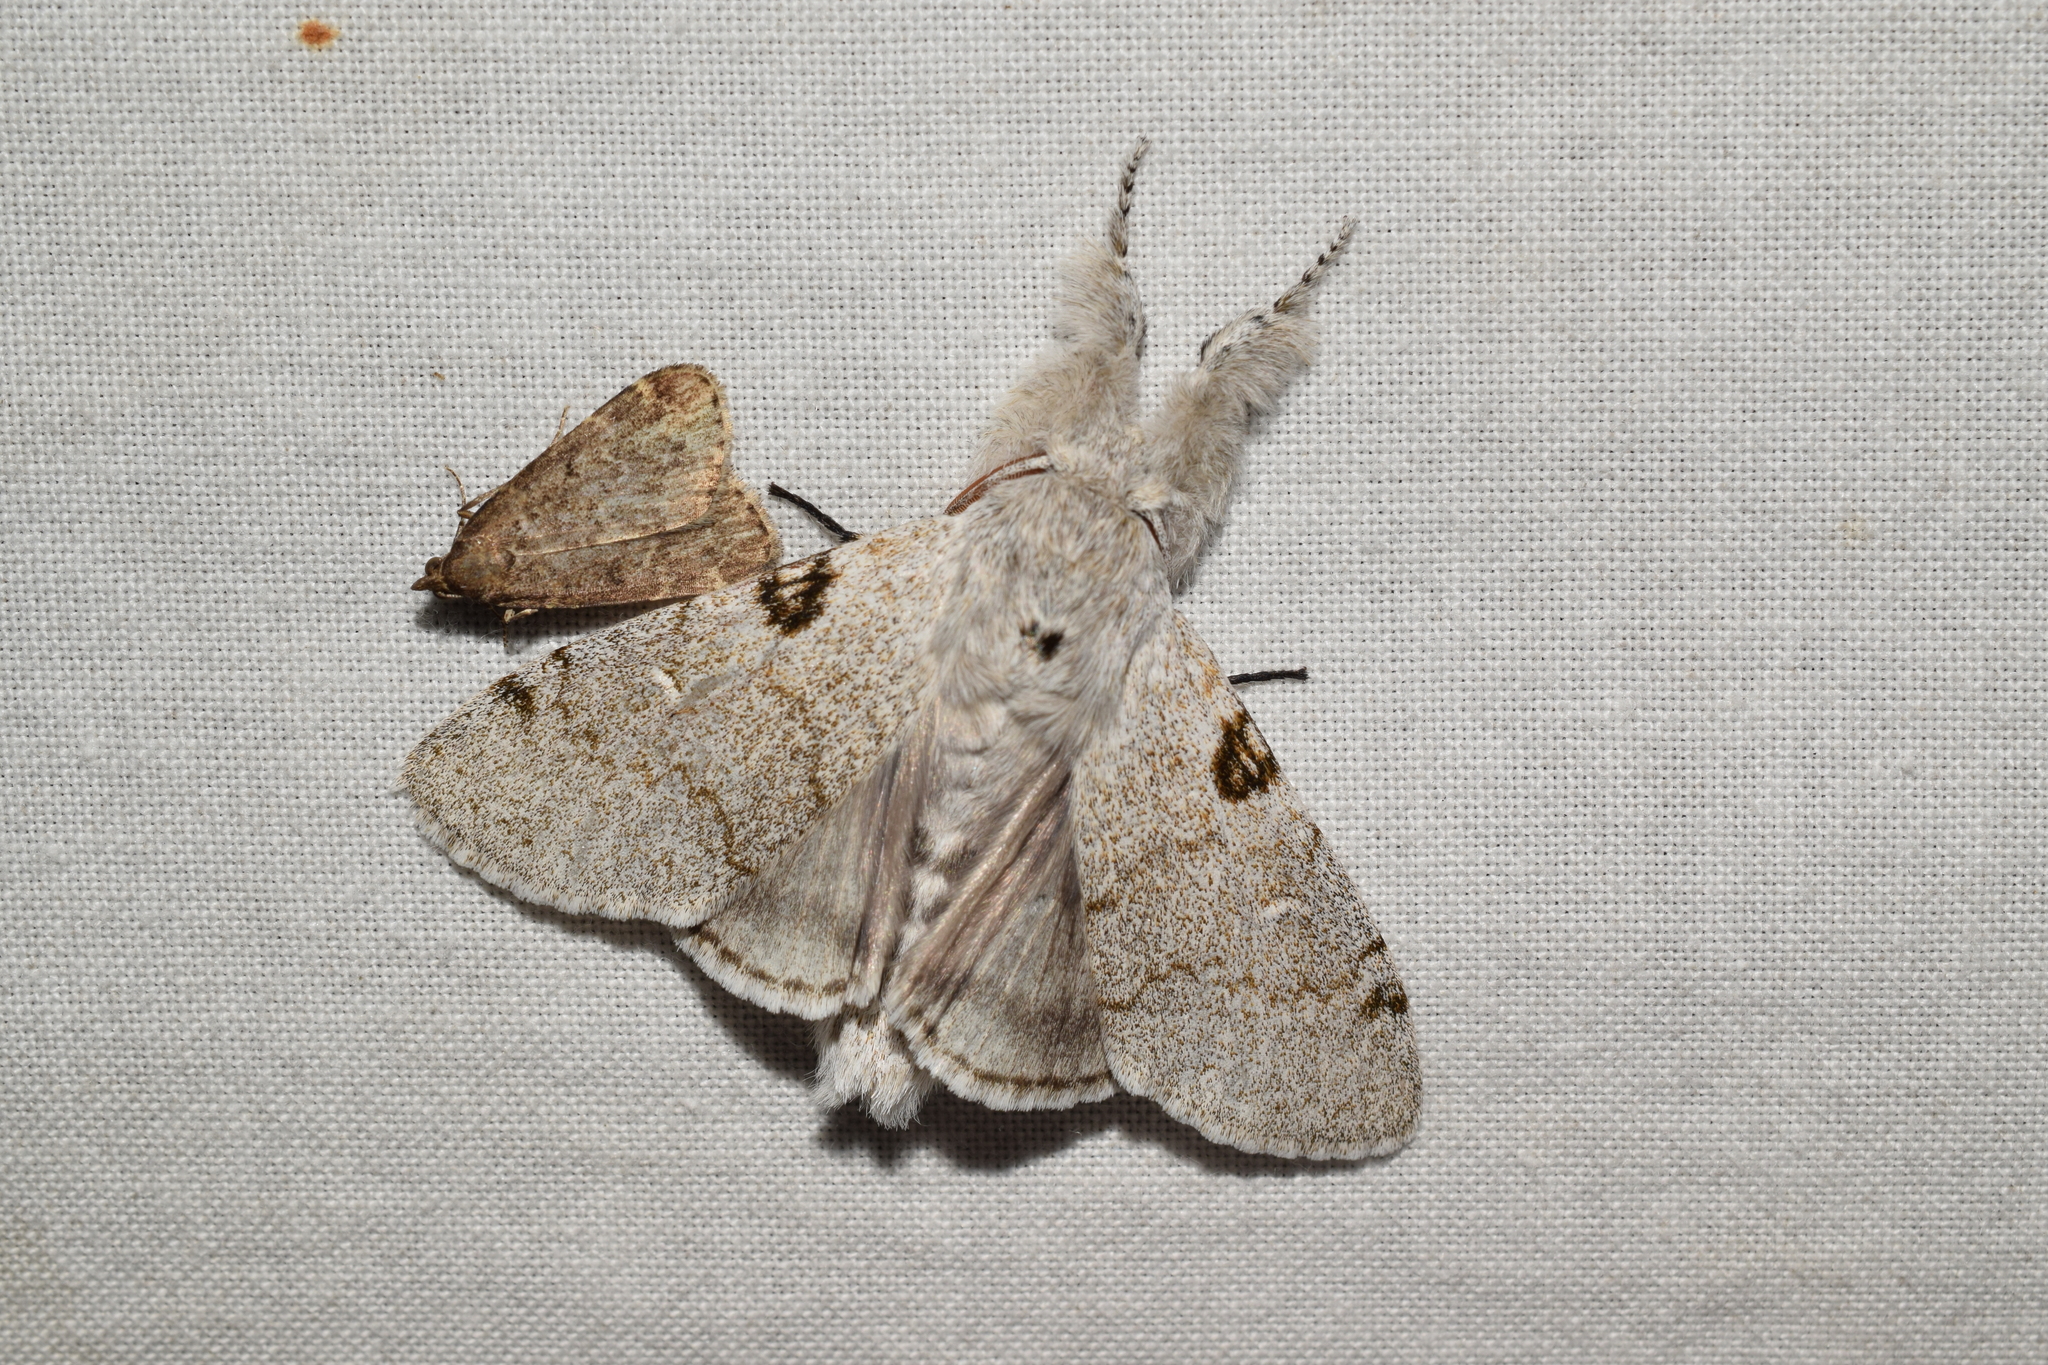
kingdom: Animalia
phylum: Arthropoda
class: Insecta
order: Lepidoptera
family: Erebidae
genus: Calliteara
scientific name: Calliteara lunulata
